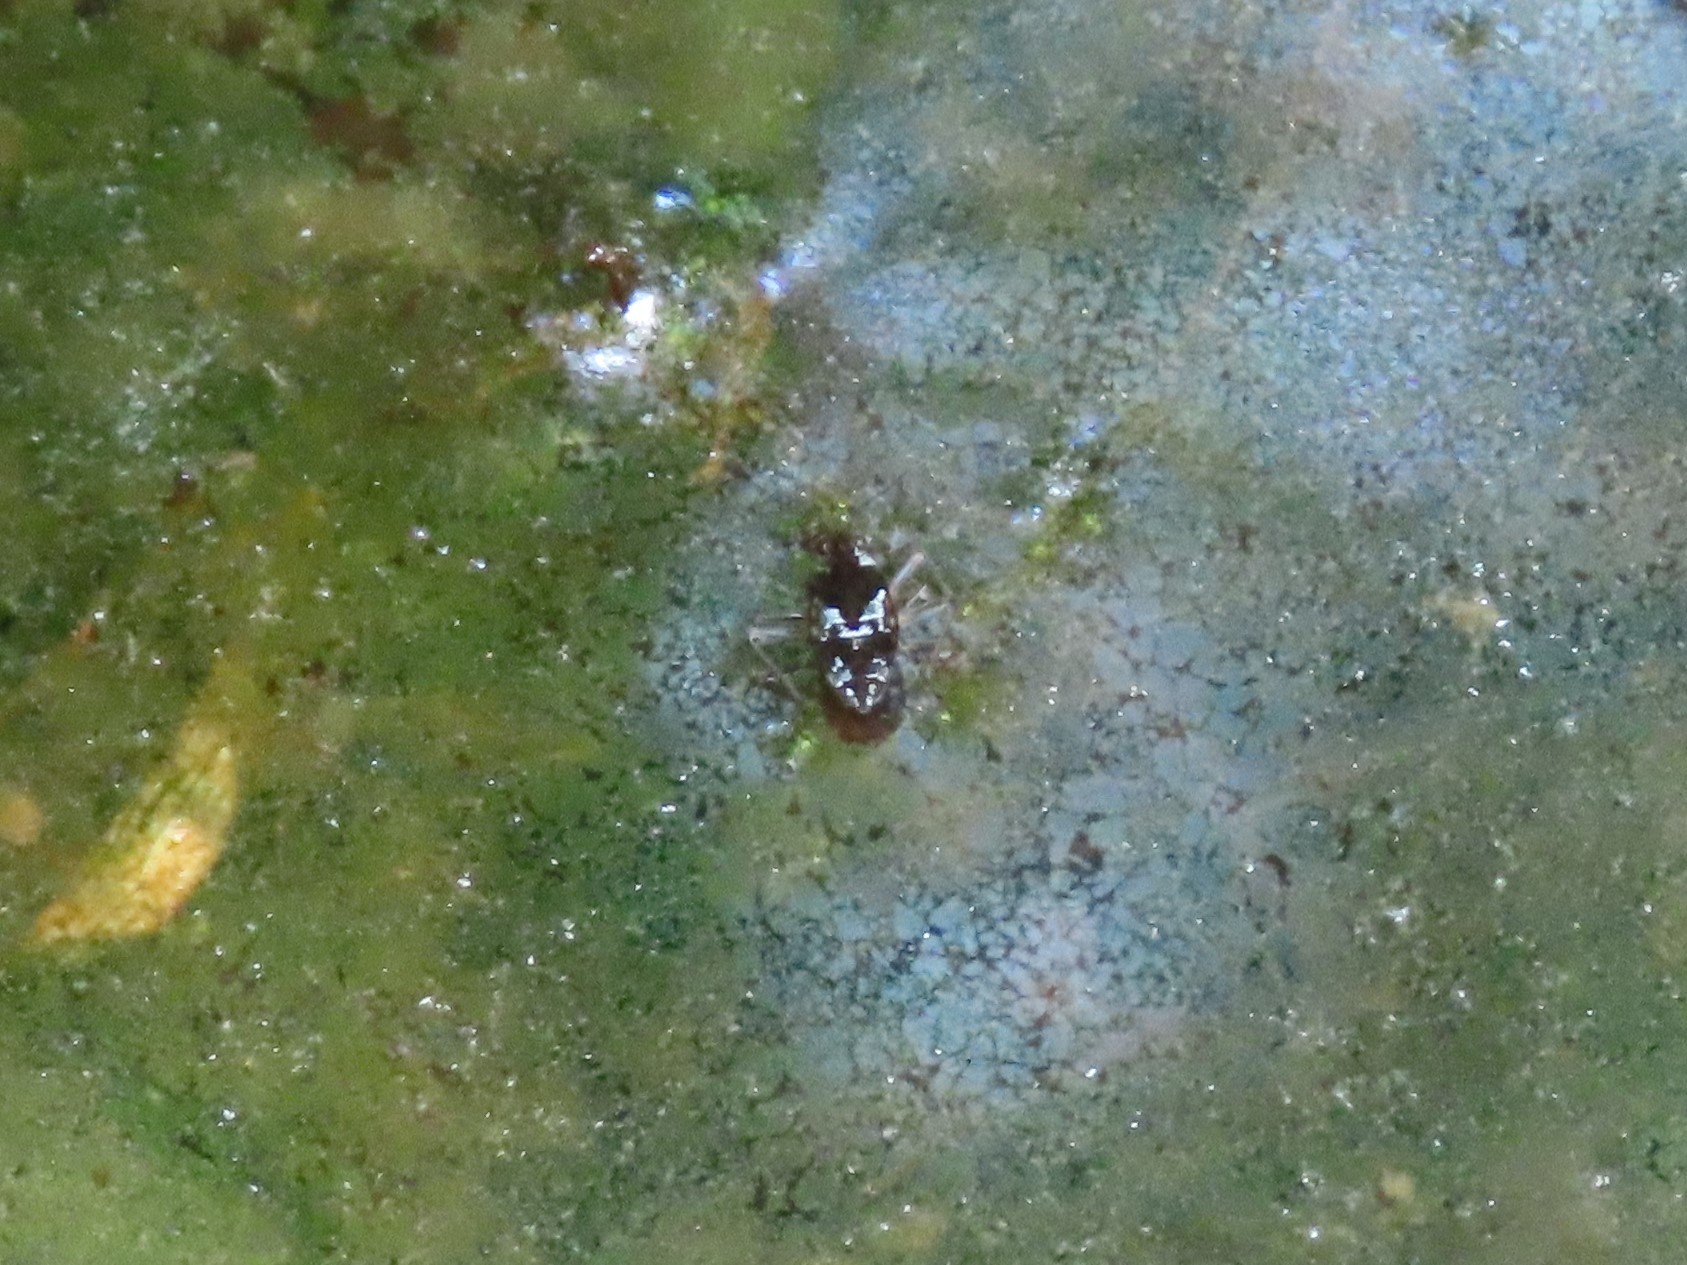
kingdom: Animalia
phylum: Arthropoda
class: Insecta
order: Hemiptera
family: Veliidae
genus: Microvelia
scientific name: Microvelia
